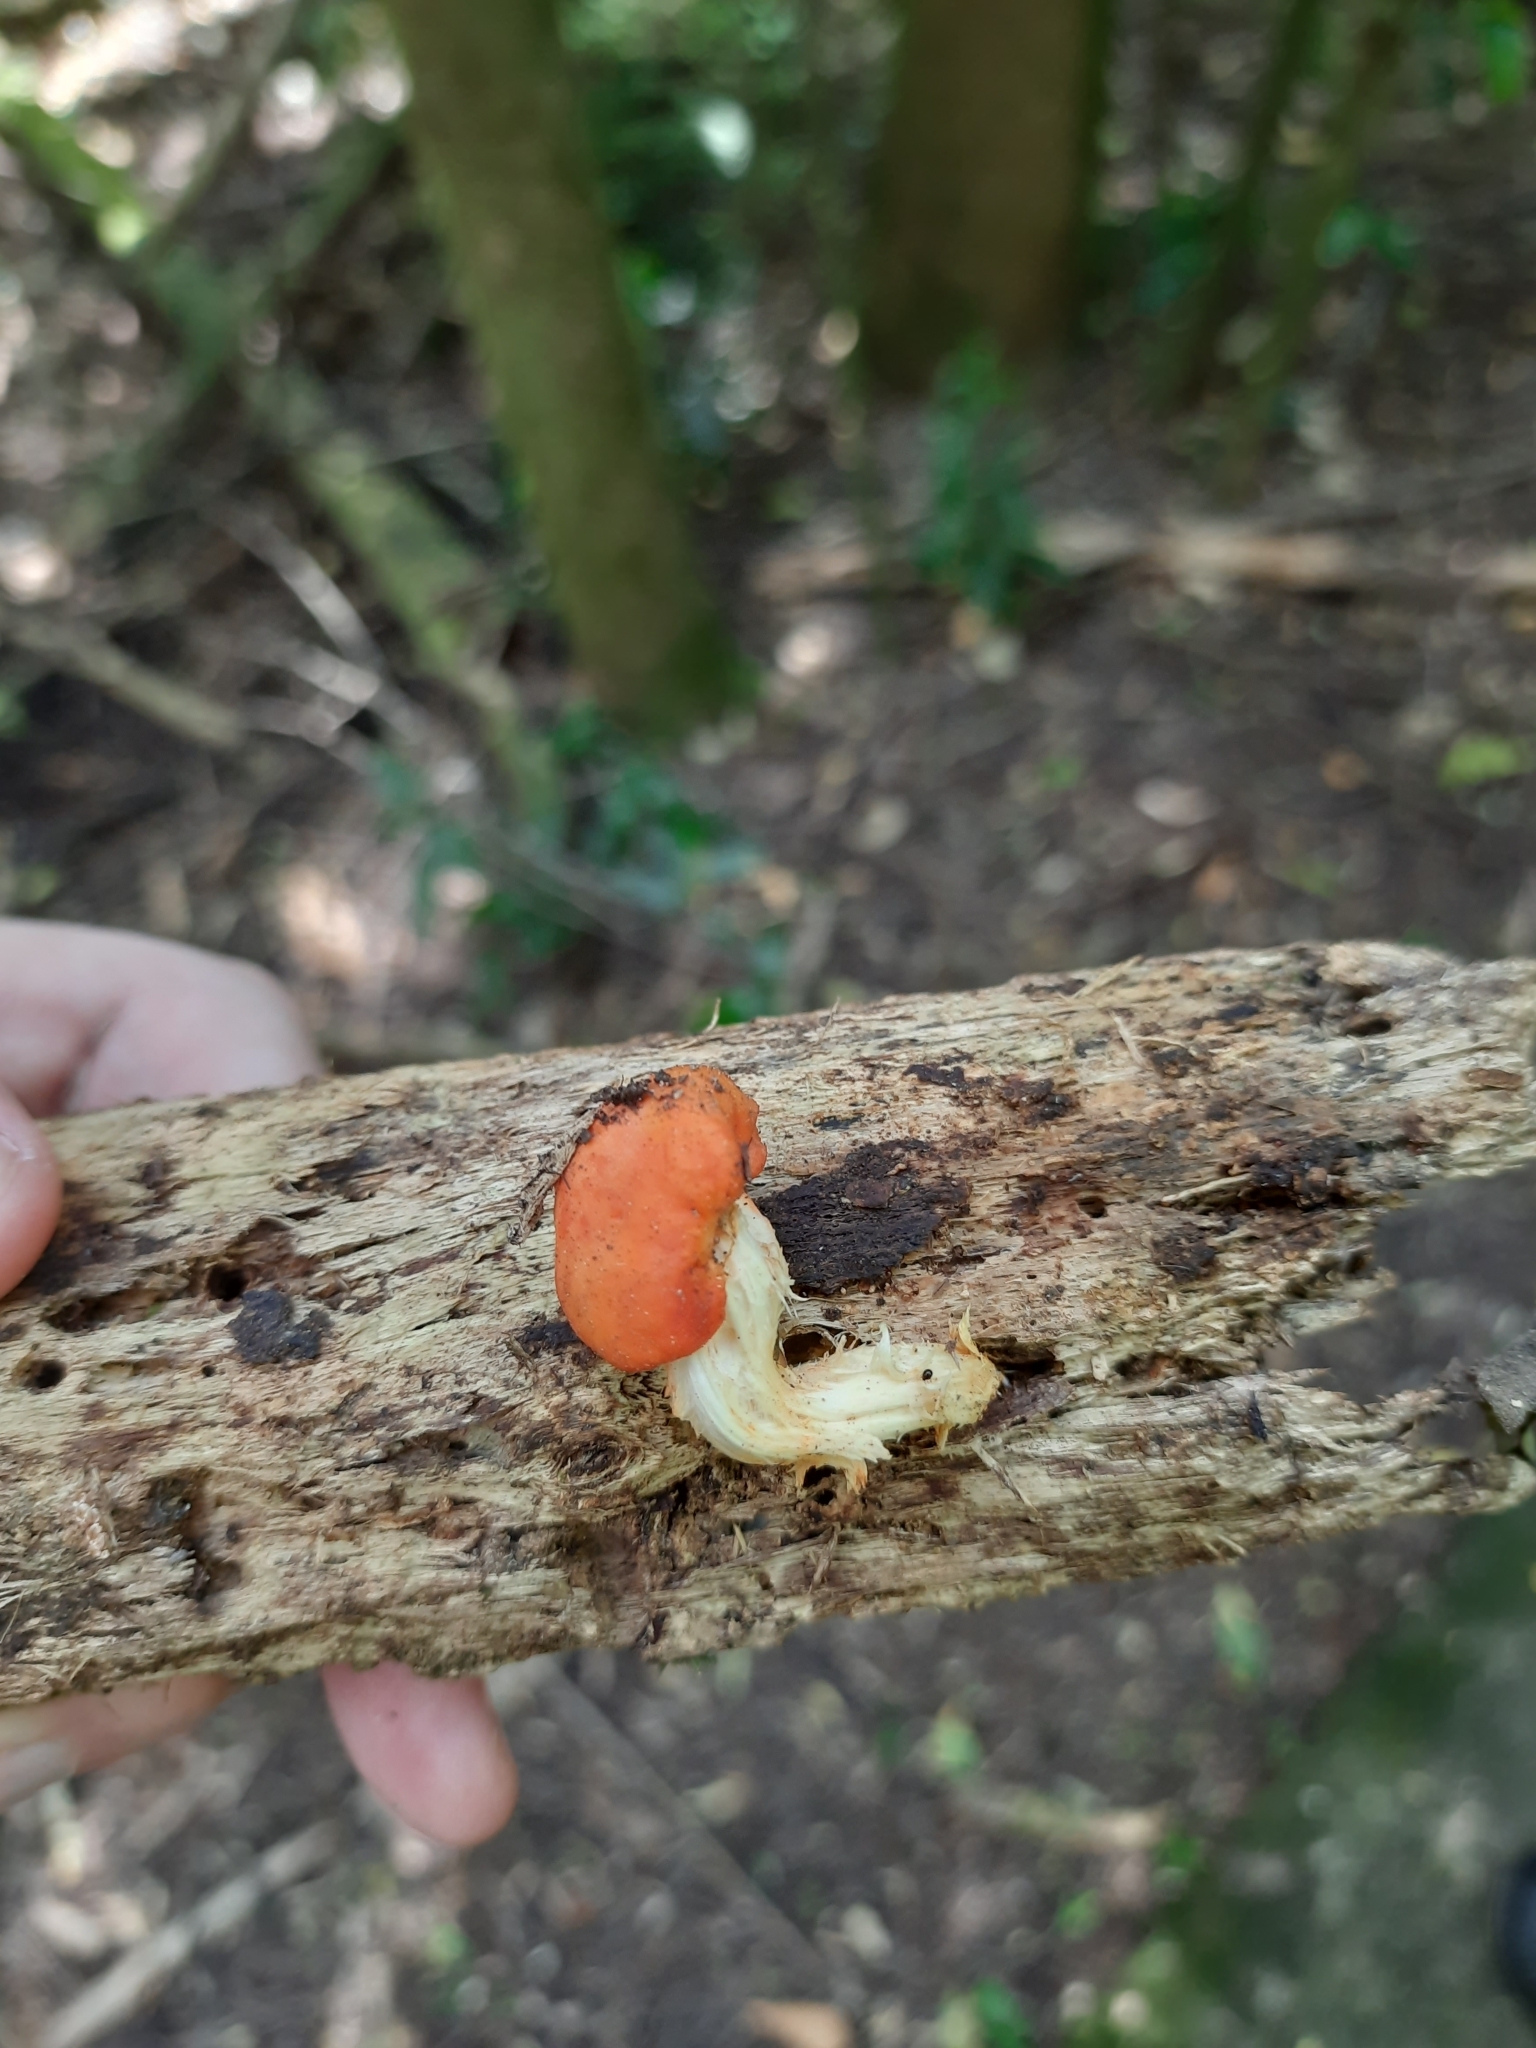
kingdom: Fungi
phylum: Basidiomycota
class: Agaricomycetes
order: Agaricales
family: Strophariaceae
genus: Leratiomyces
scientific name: Leratiomyces erythrocephalus
